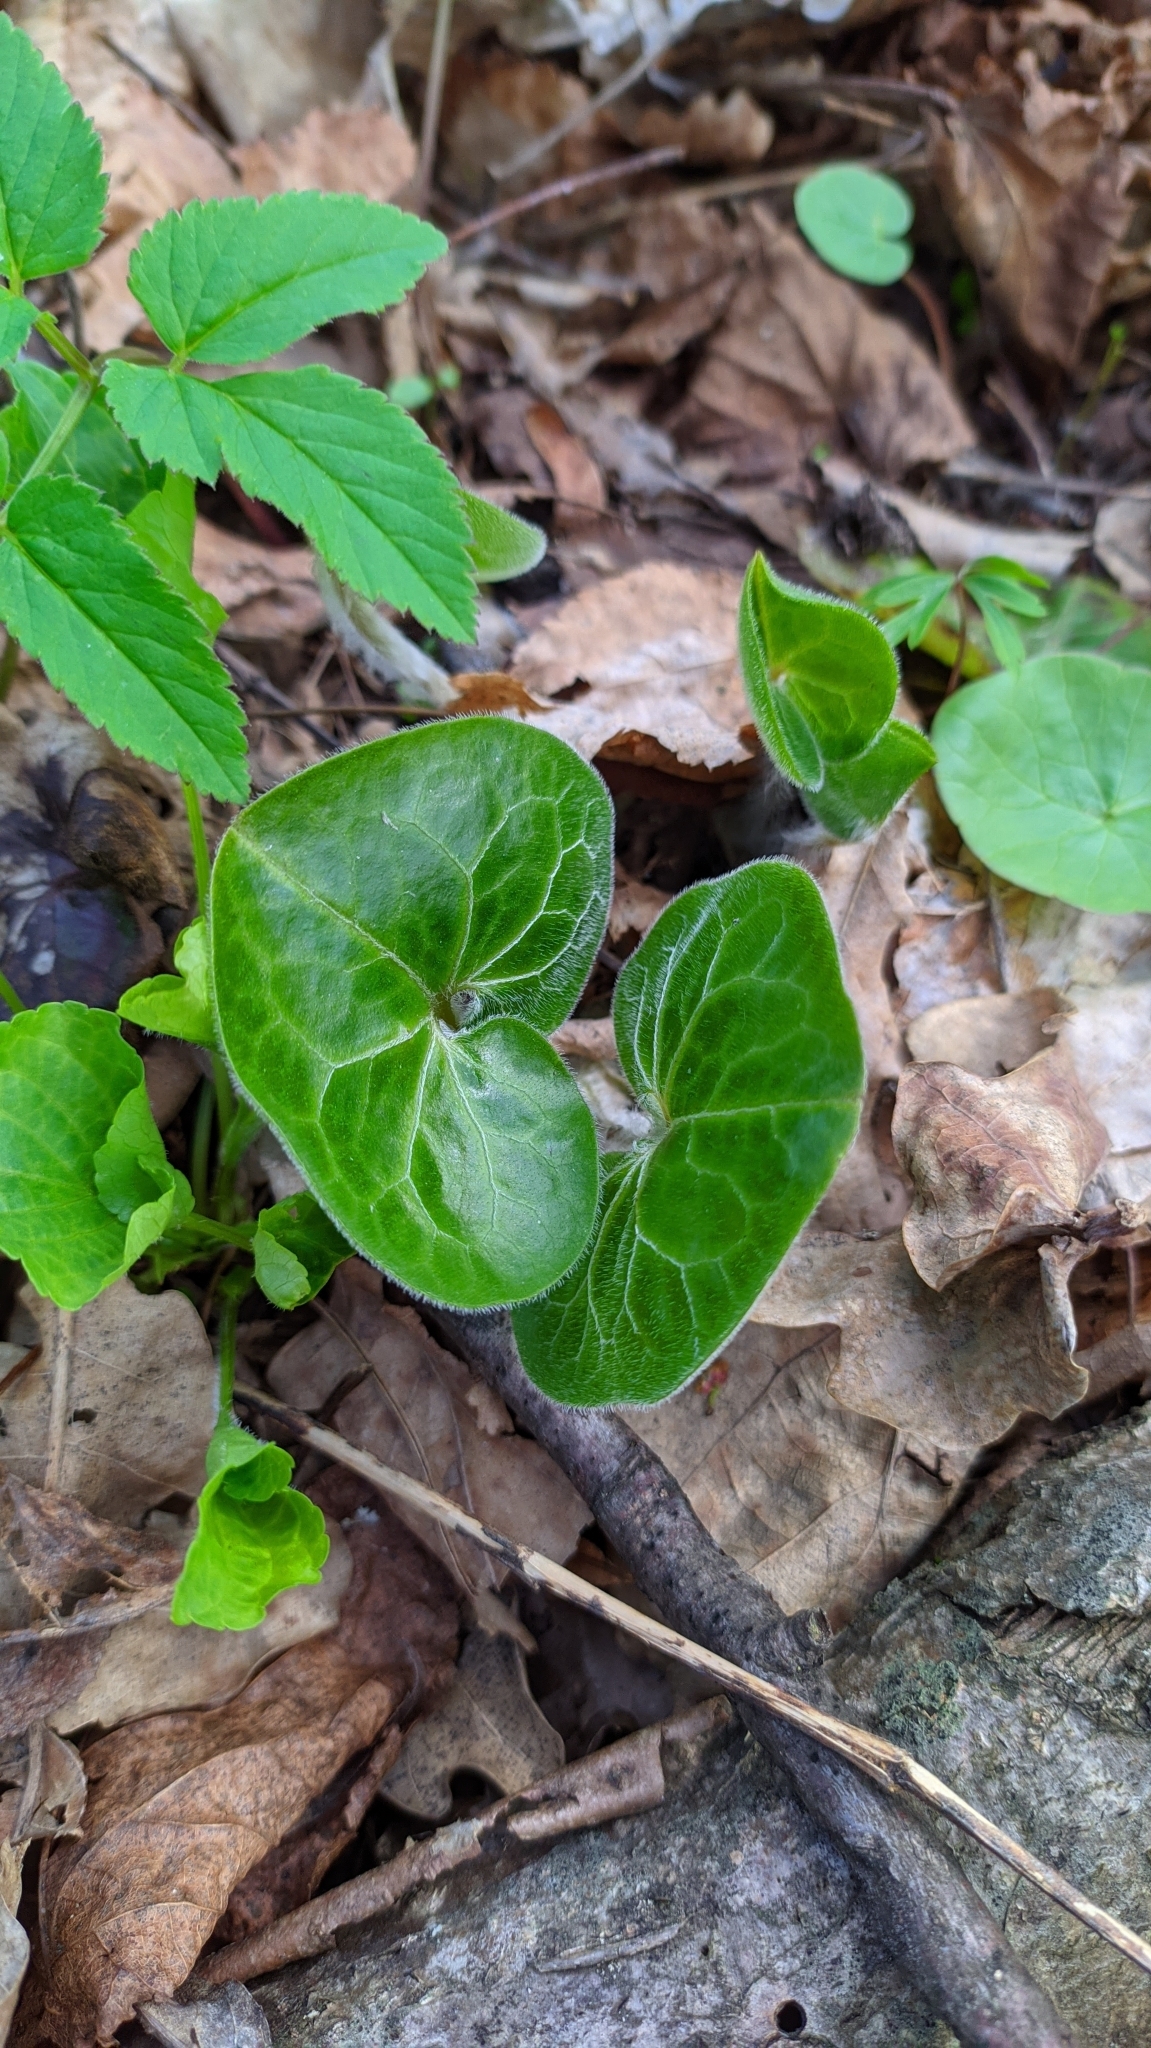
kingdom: Plantae
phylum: Tracheophyta
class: Magnoliopsida
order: Piperales
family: Aristolochiaceae
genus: Asarum
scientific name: Asarum europaeum
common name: Asarabacca
